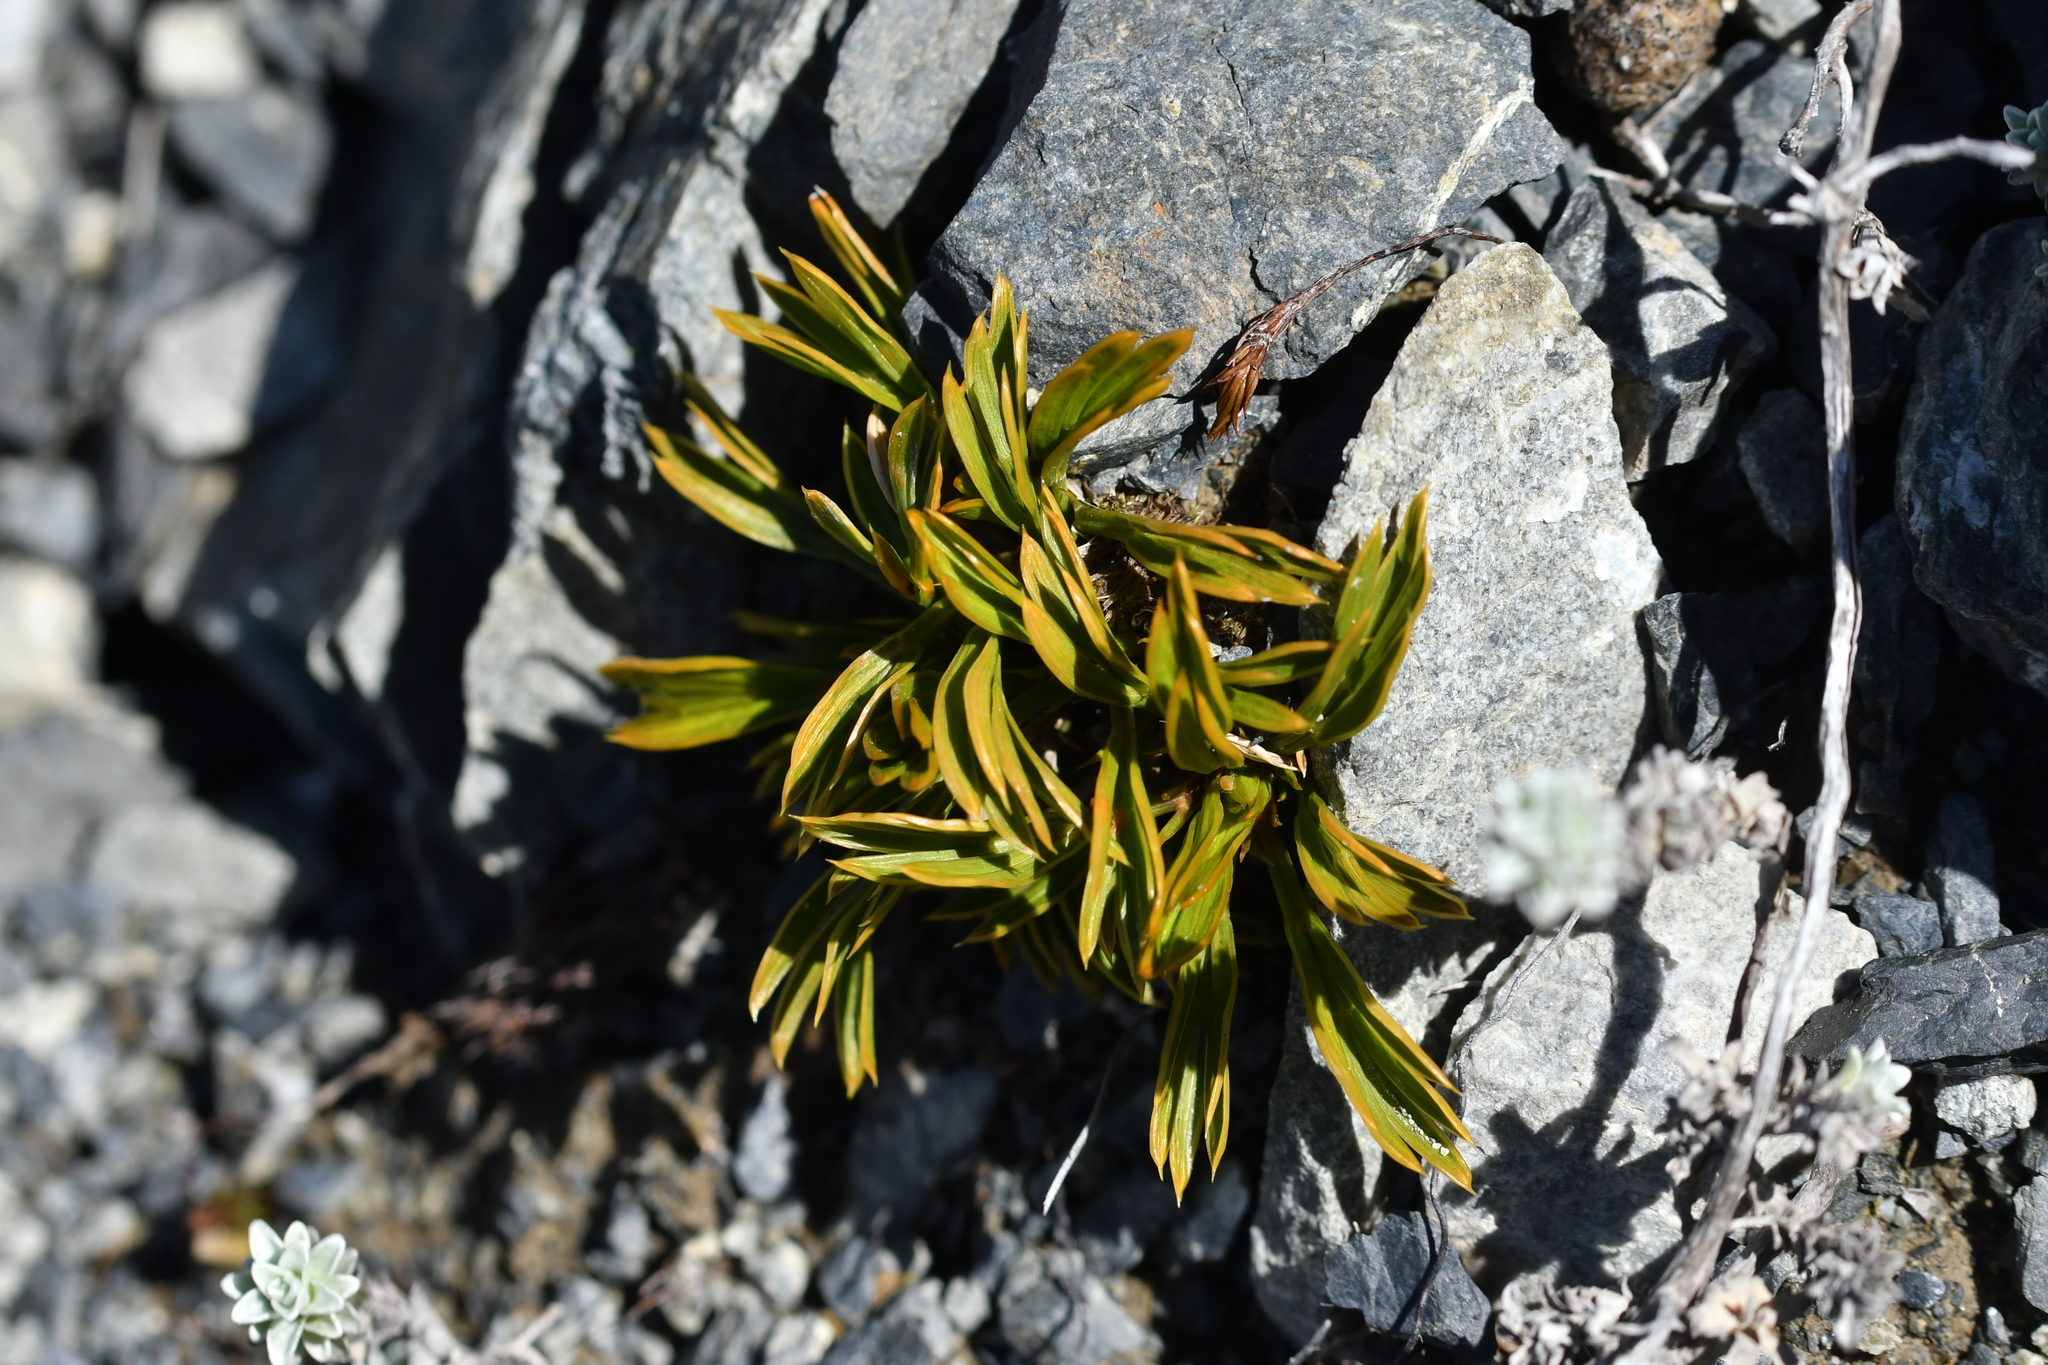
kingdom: Plantae
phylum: Tracheophyta
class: Magnoliopsida
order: Apiales
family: Apiaceae
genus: Aciphylla
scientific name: Aciphylla monroi
